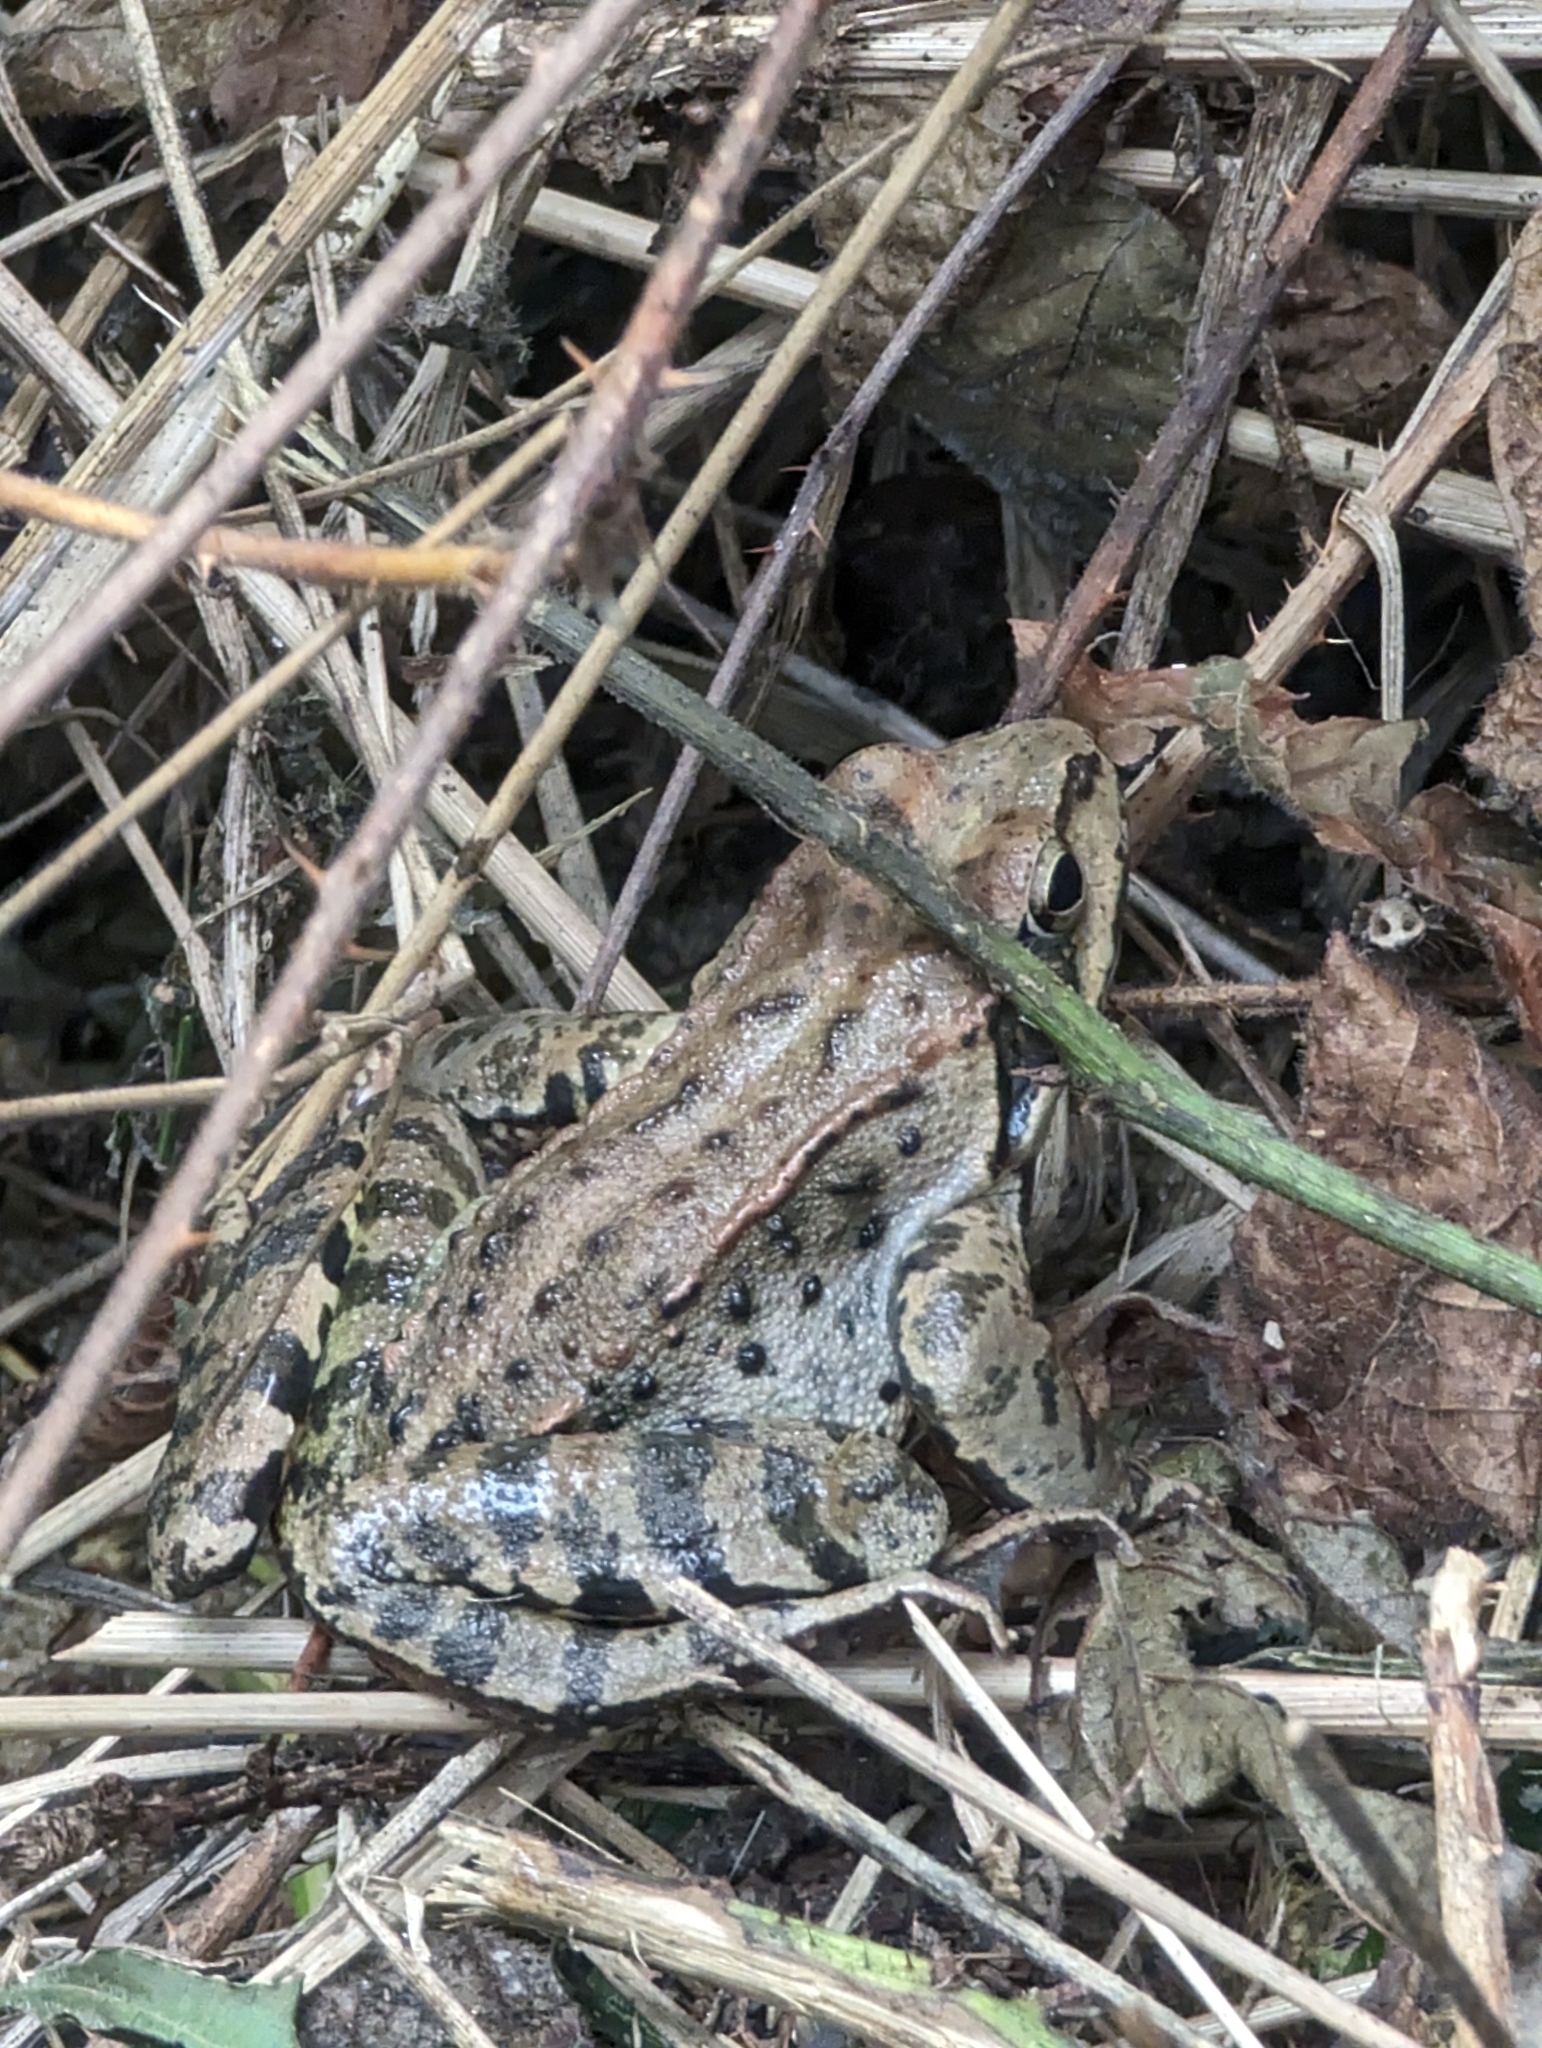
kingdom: Animalia
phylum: Chordata
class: Amphibia
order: Anura
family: Ranidae
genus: Rana
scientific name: Rana temporaria
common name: Common frog
